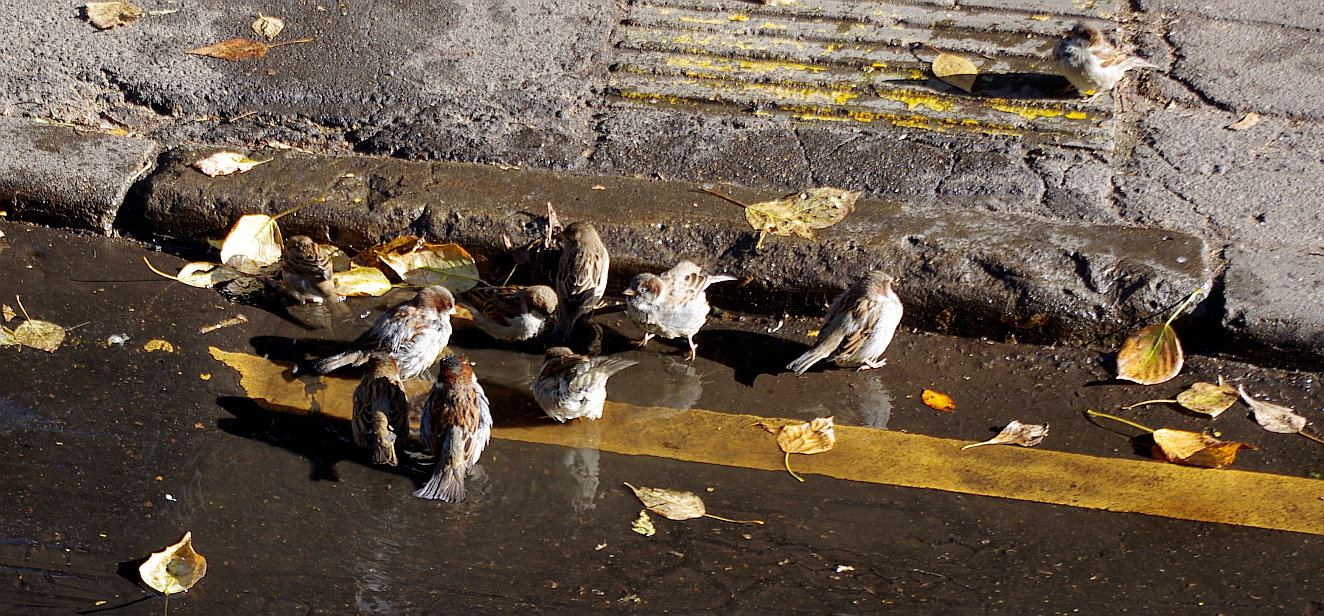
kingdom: Animalia
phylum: Chordata
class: Aves
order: Passeriformes
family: Passeridae
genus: Passer
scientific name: Passer domesticus
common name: House sparrow
